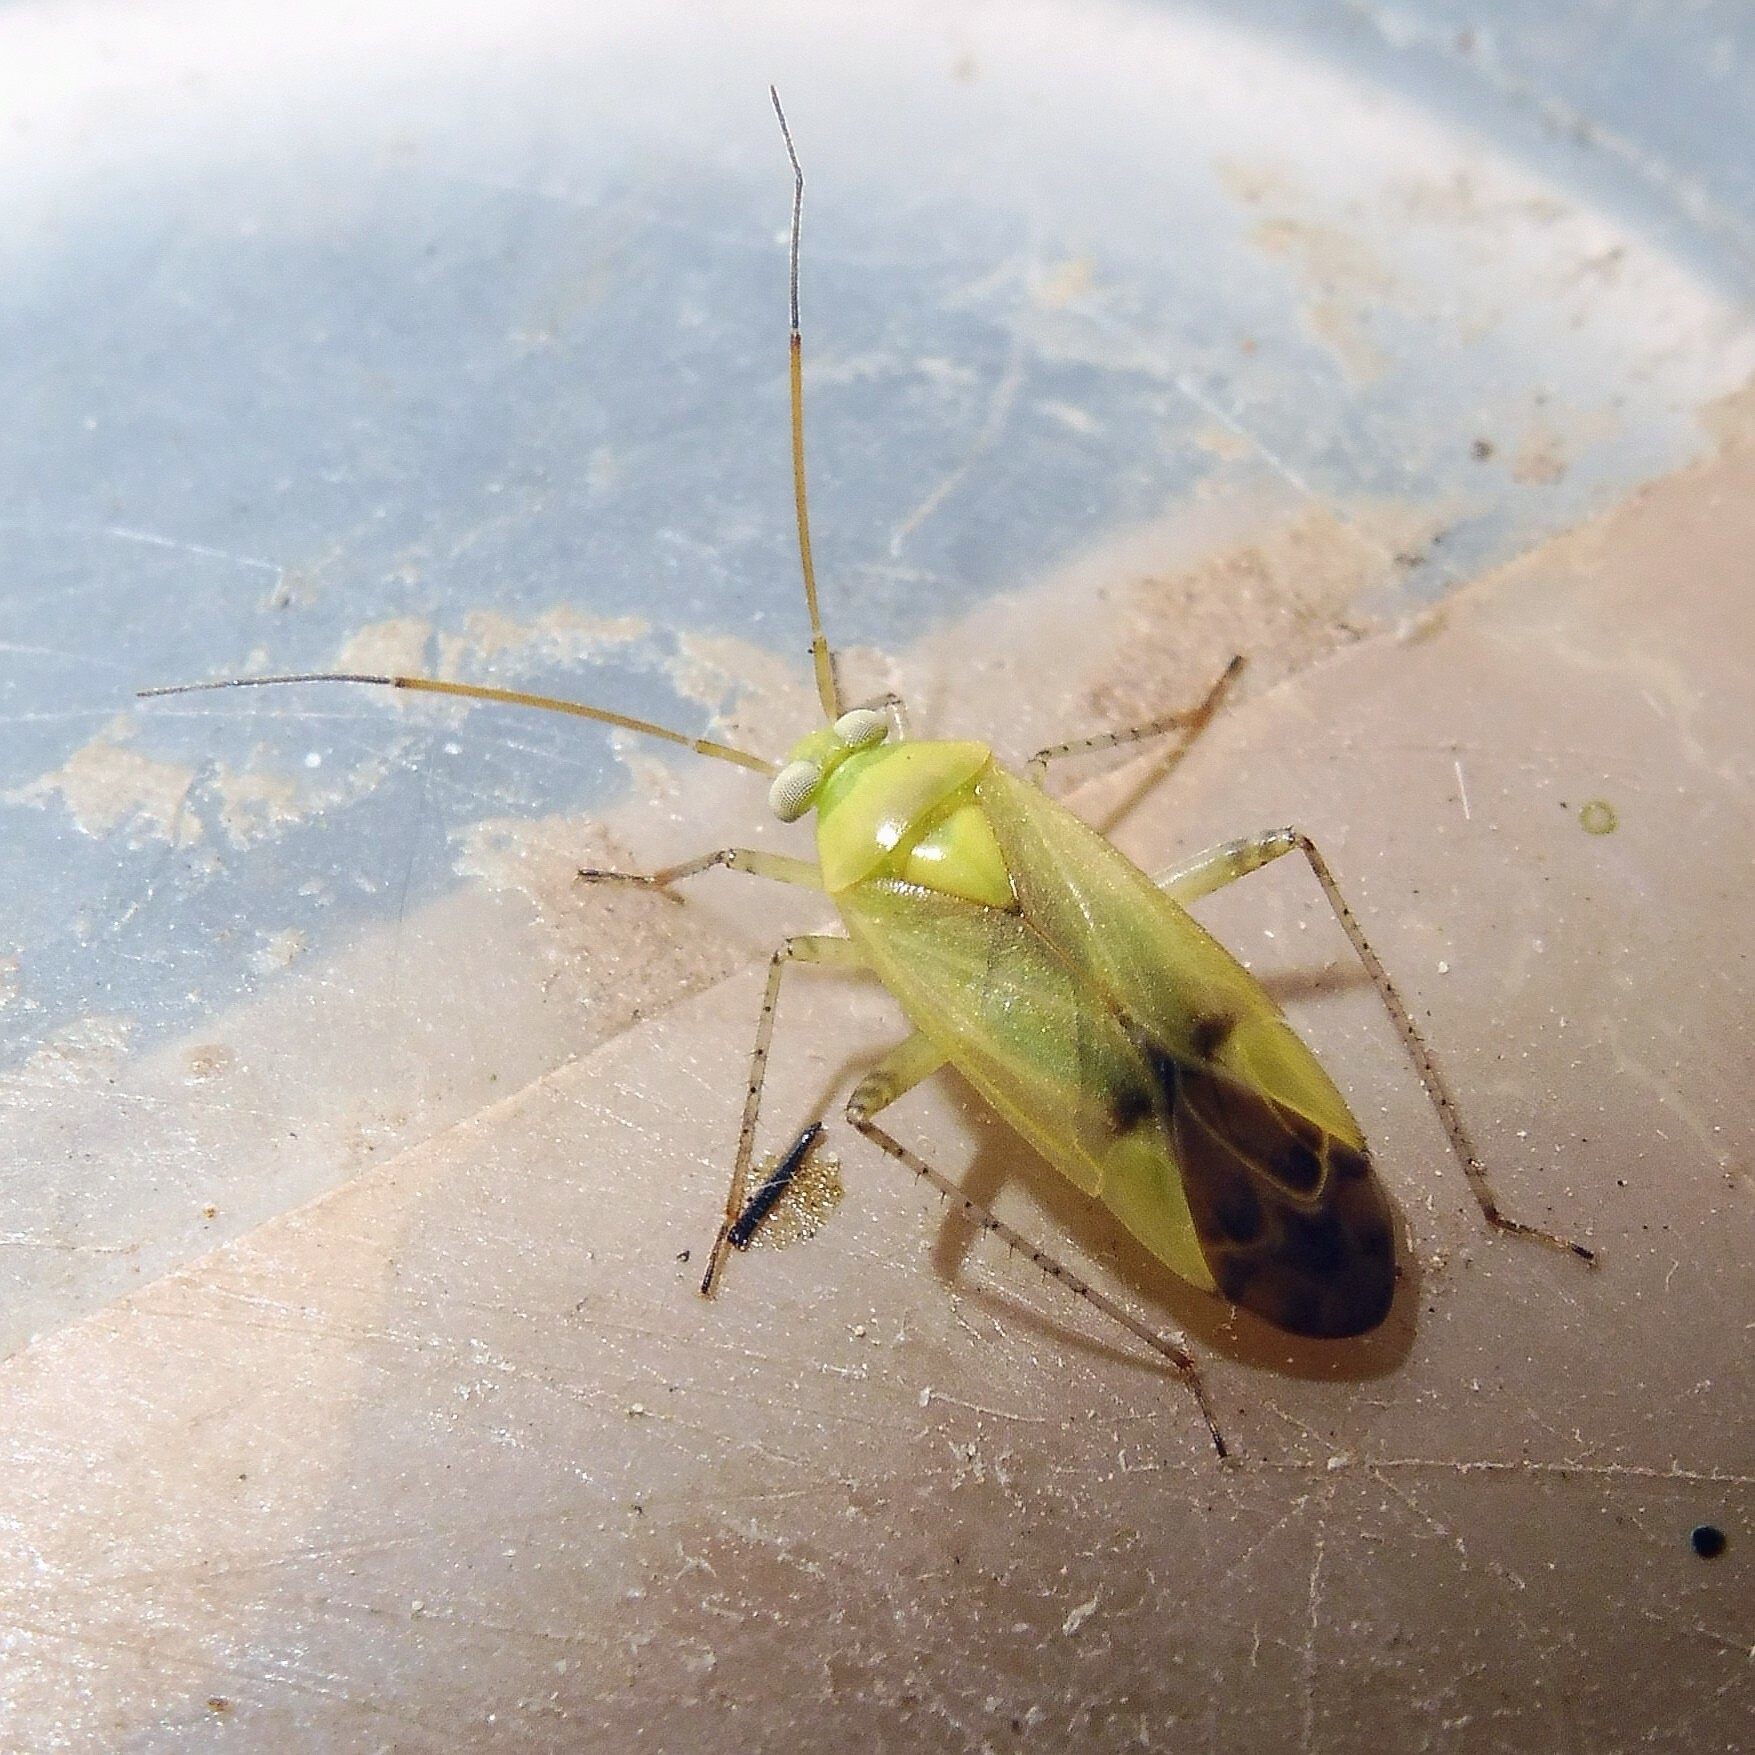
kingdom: Animalia
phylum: Arthropoda
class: Insecta
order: Hemiptera
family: Miridae
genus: Neolygus
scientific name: Neolygus contaminatus
